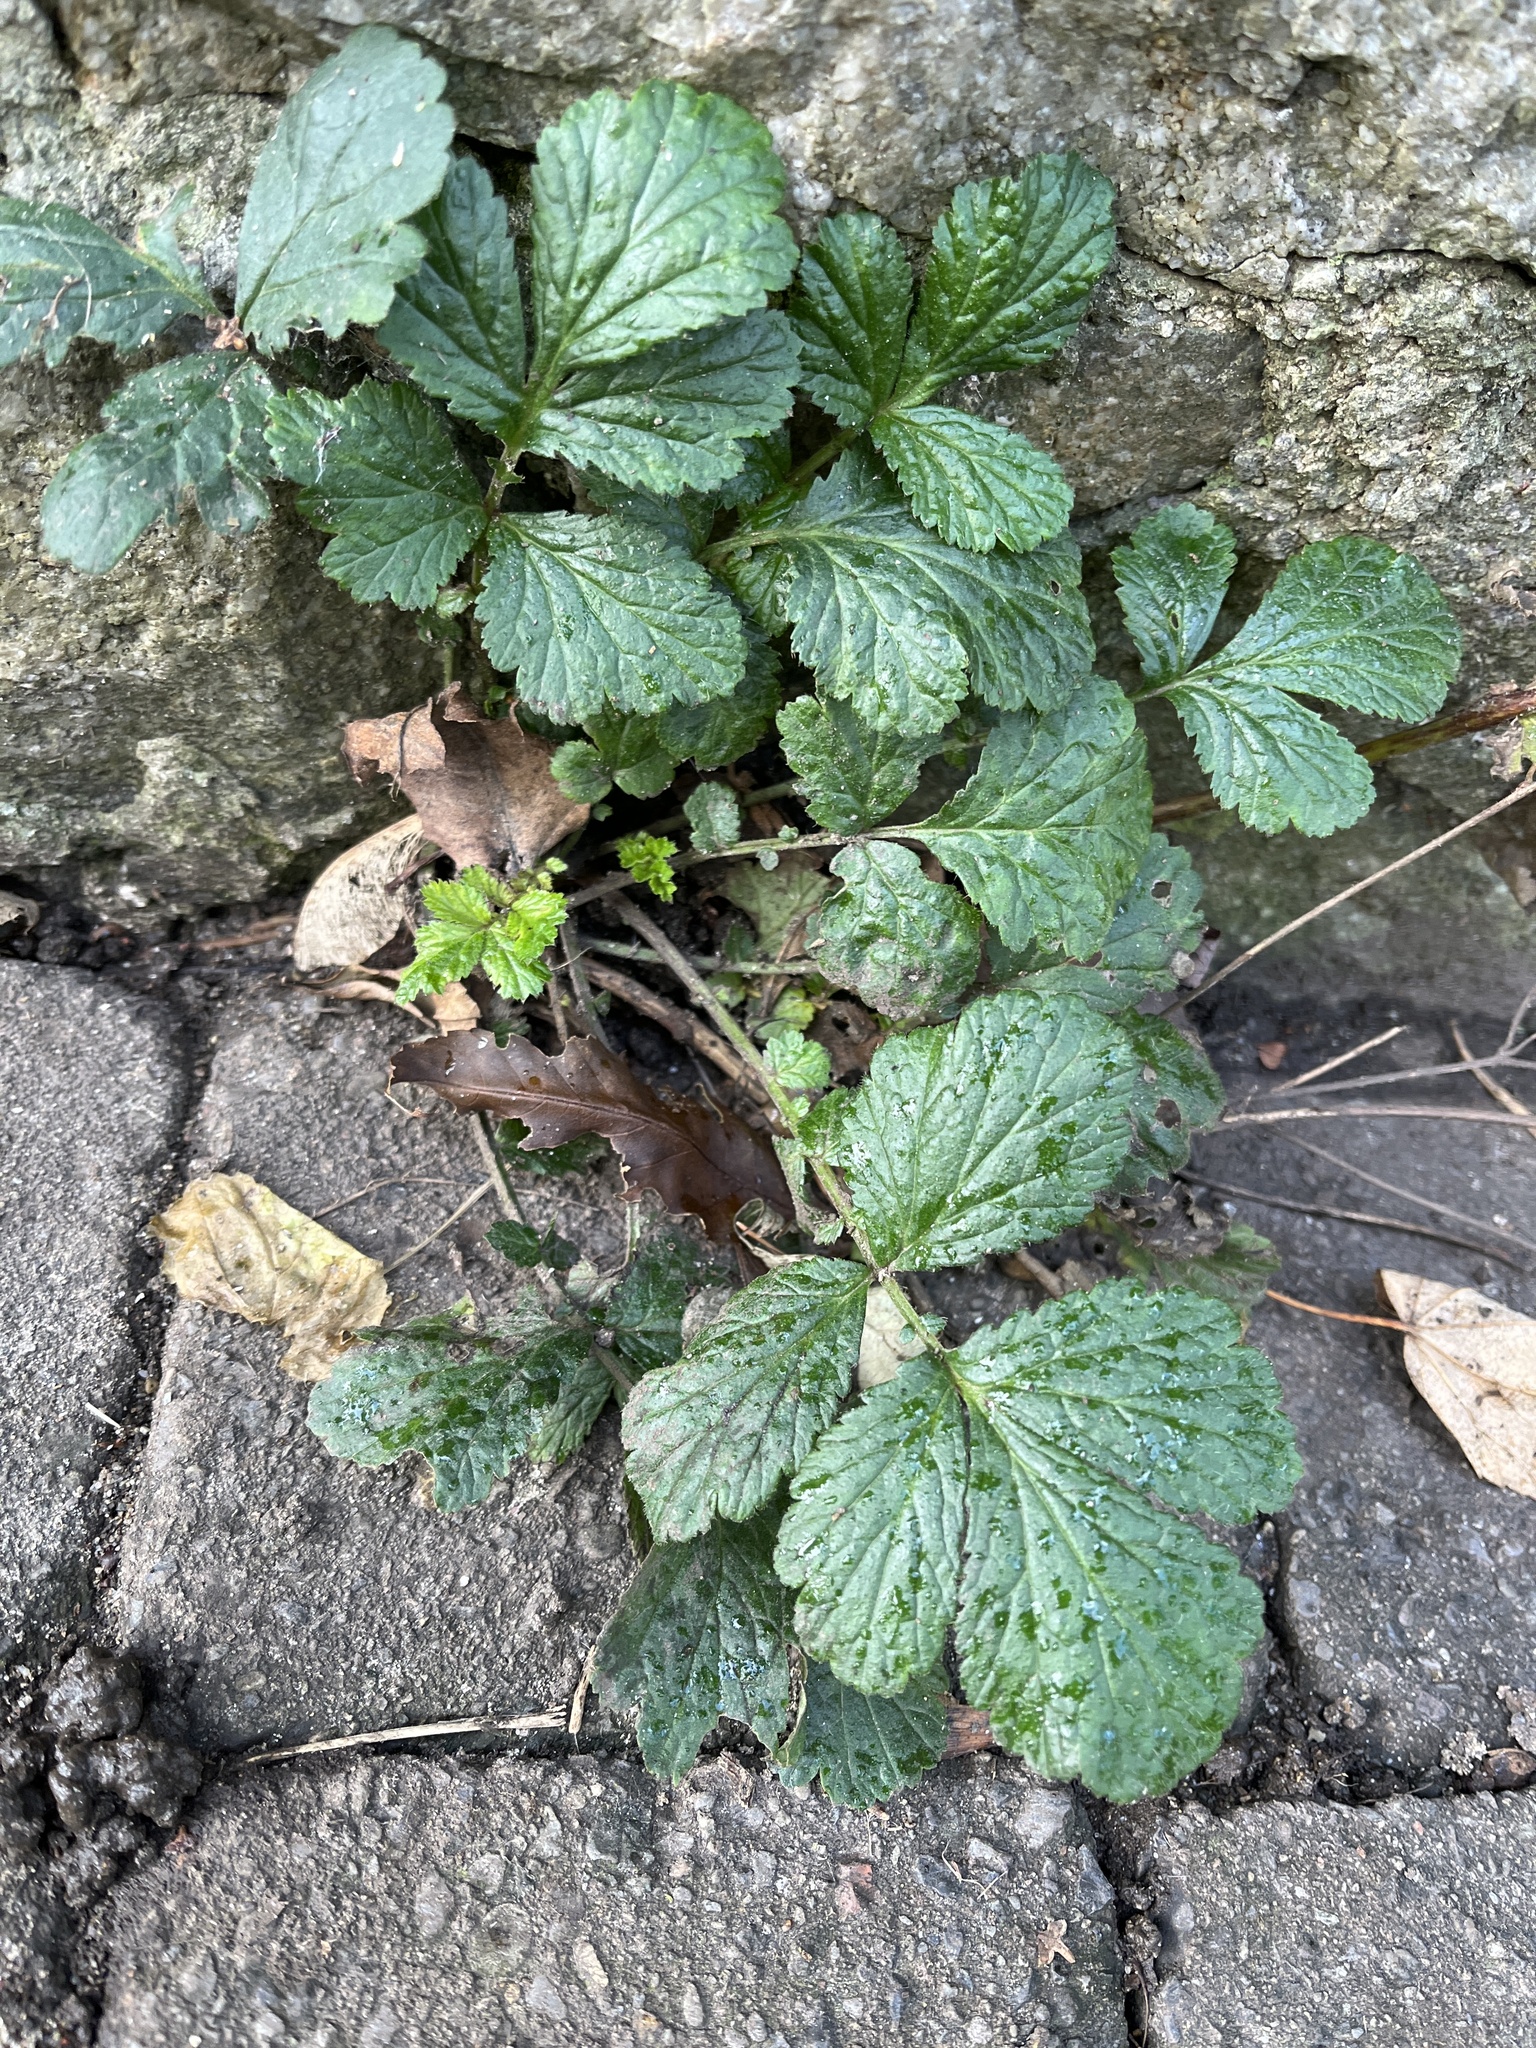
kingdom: Plantae
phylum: Tracheophyta
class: Magnoliopsida
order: Rosales
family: Rosaceae
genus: Geum
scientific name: Geum urbanum
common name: Wood avens
